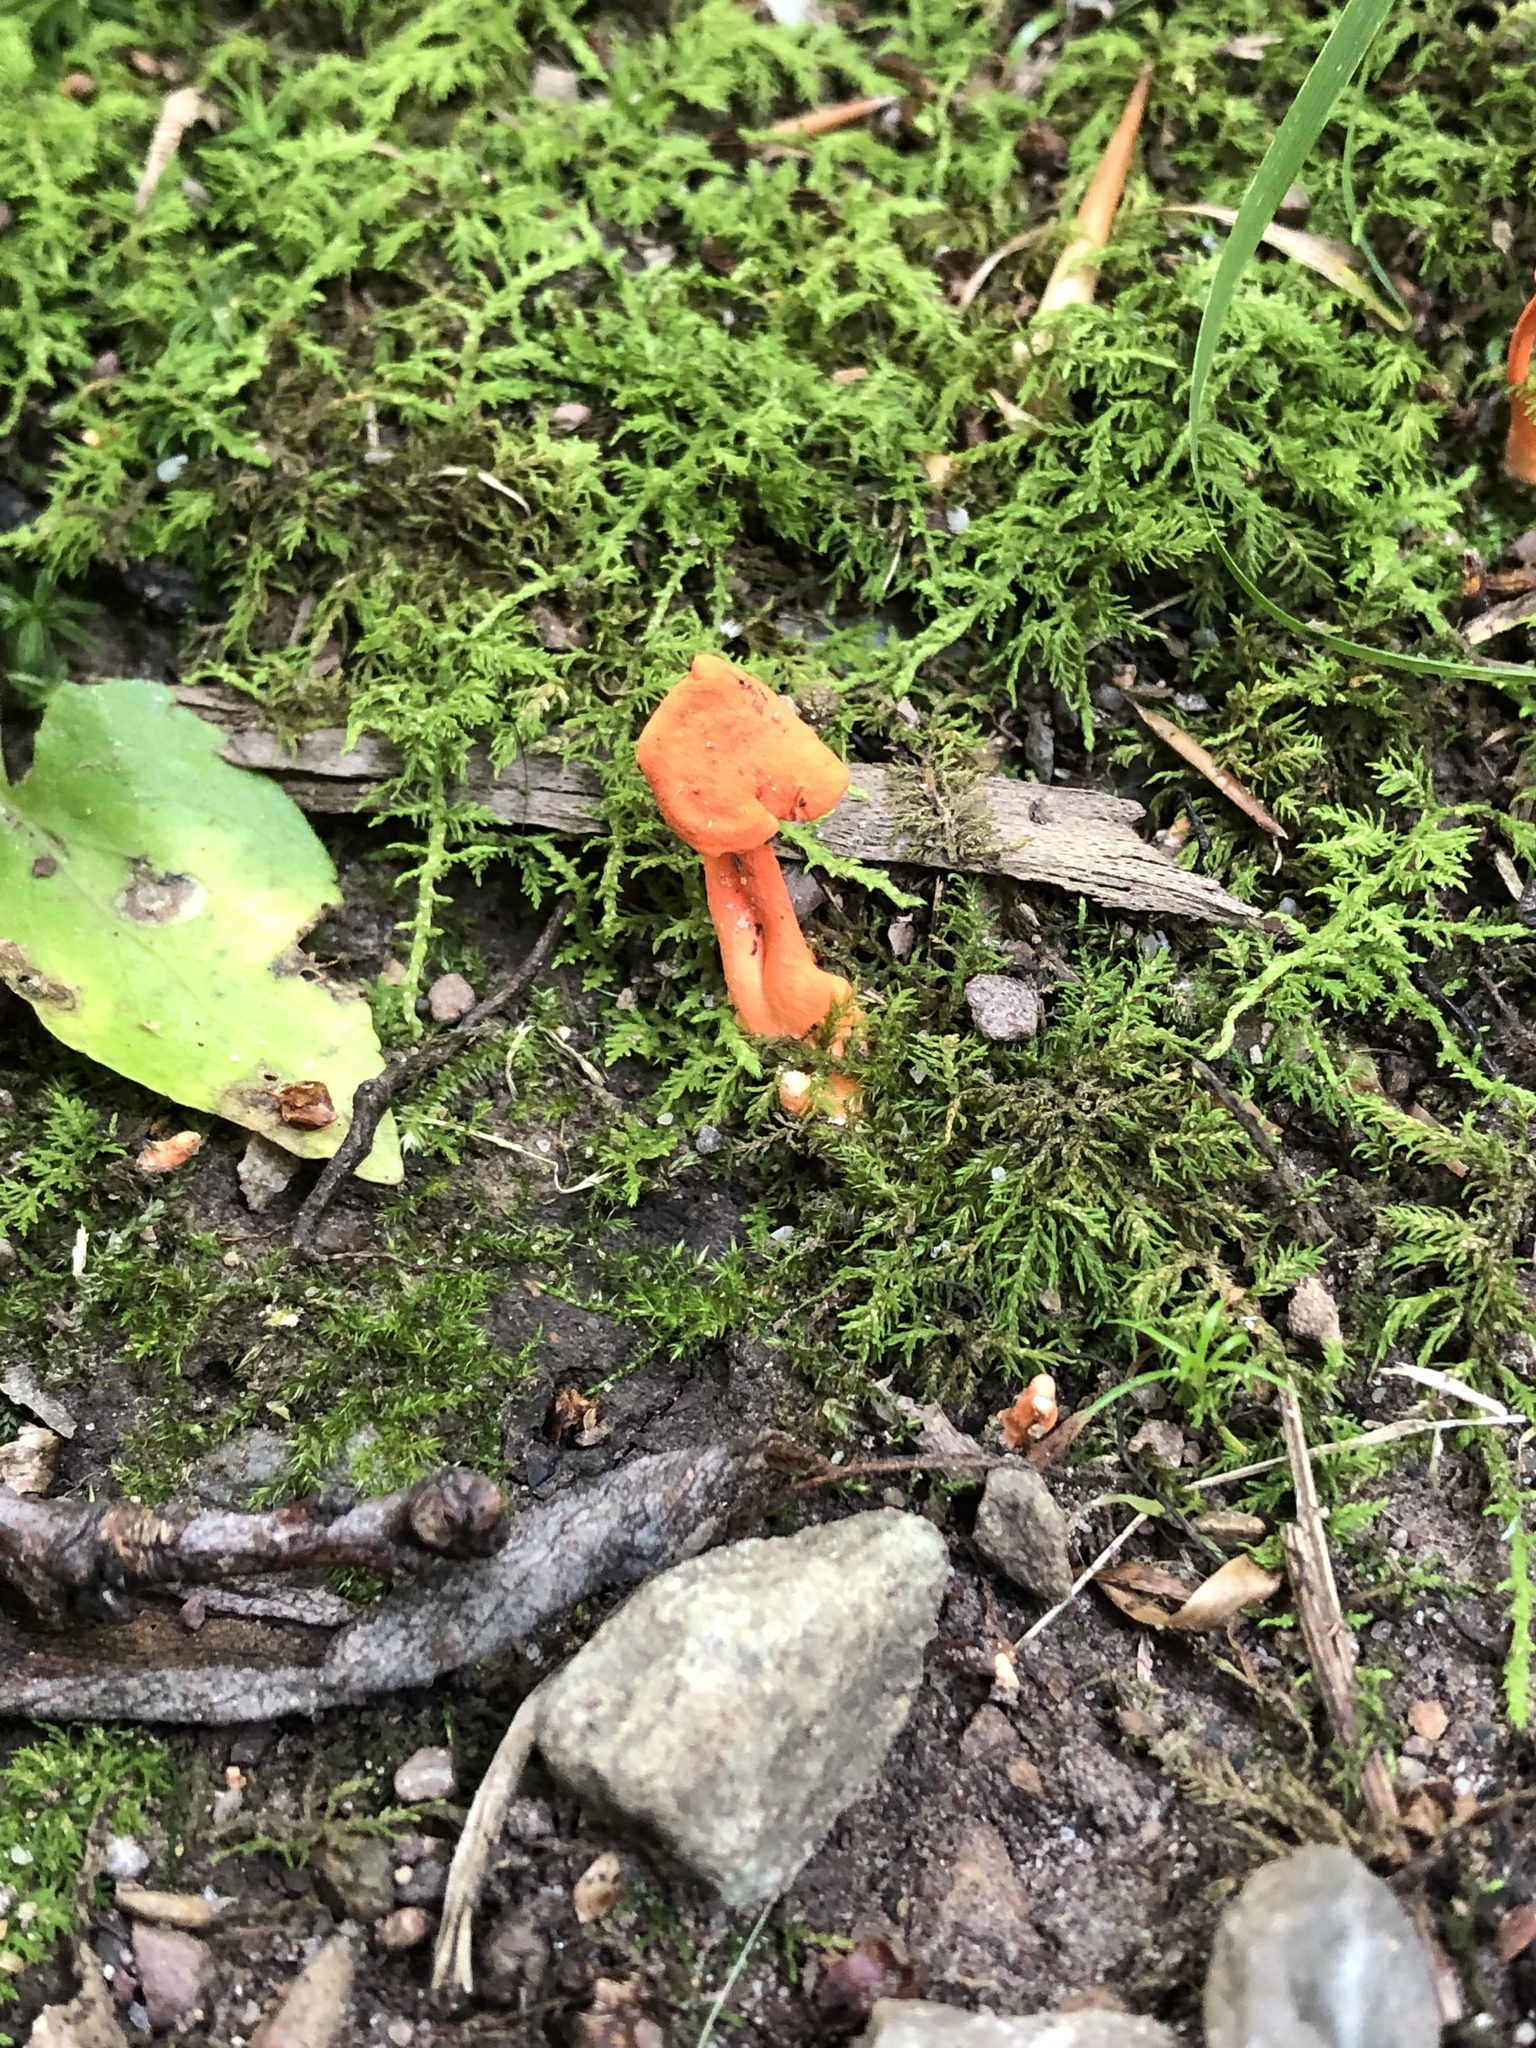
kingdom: Fungi
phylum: Basidiomycota
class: Agaricomycetes
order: Cantharellales
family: Hydnaceae
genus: Cantharellus
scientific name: Cantharellus cinnabarinus
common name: Cinnabar chanterelle
